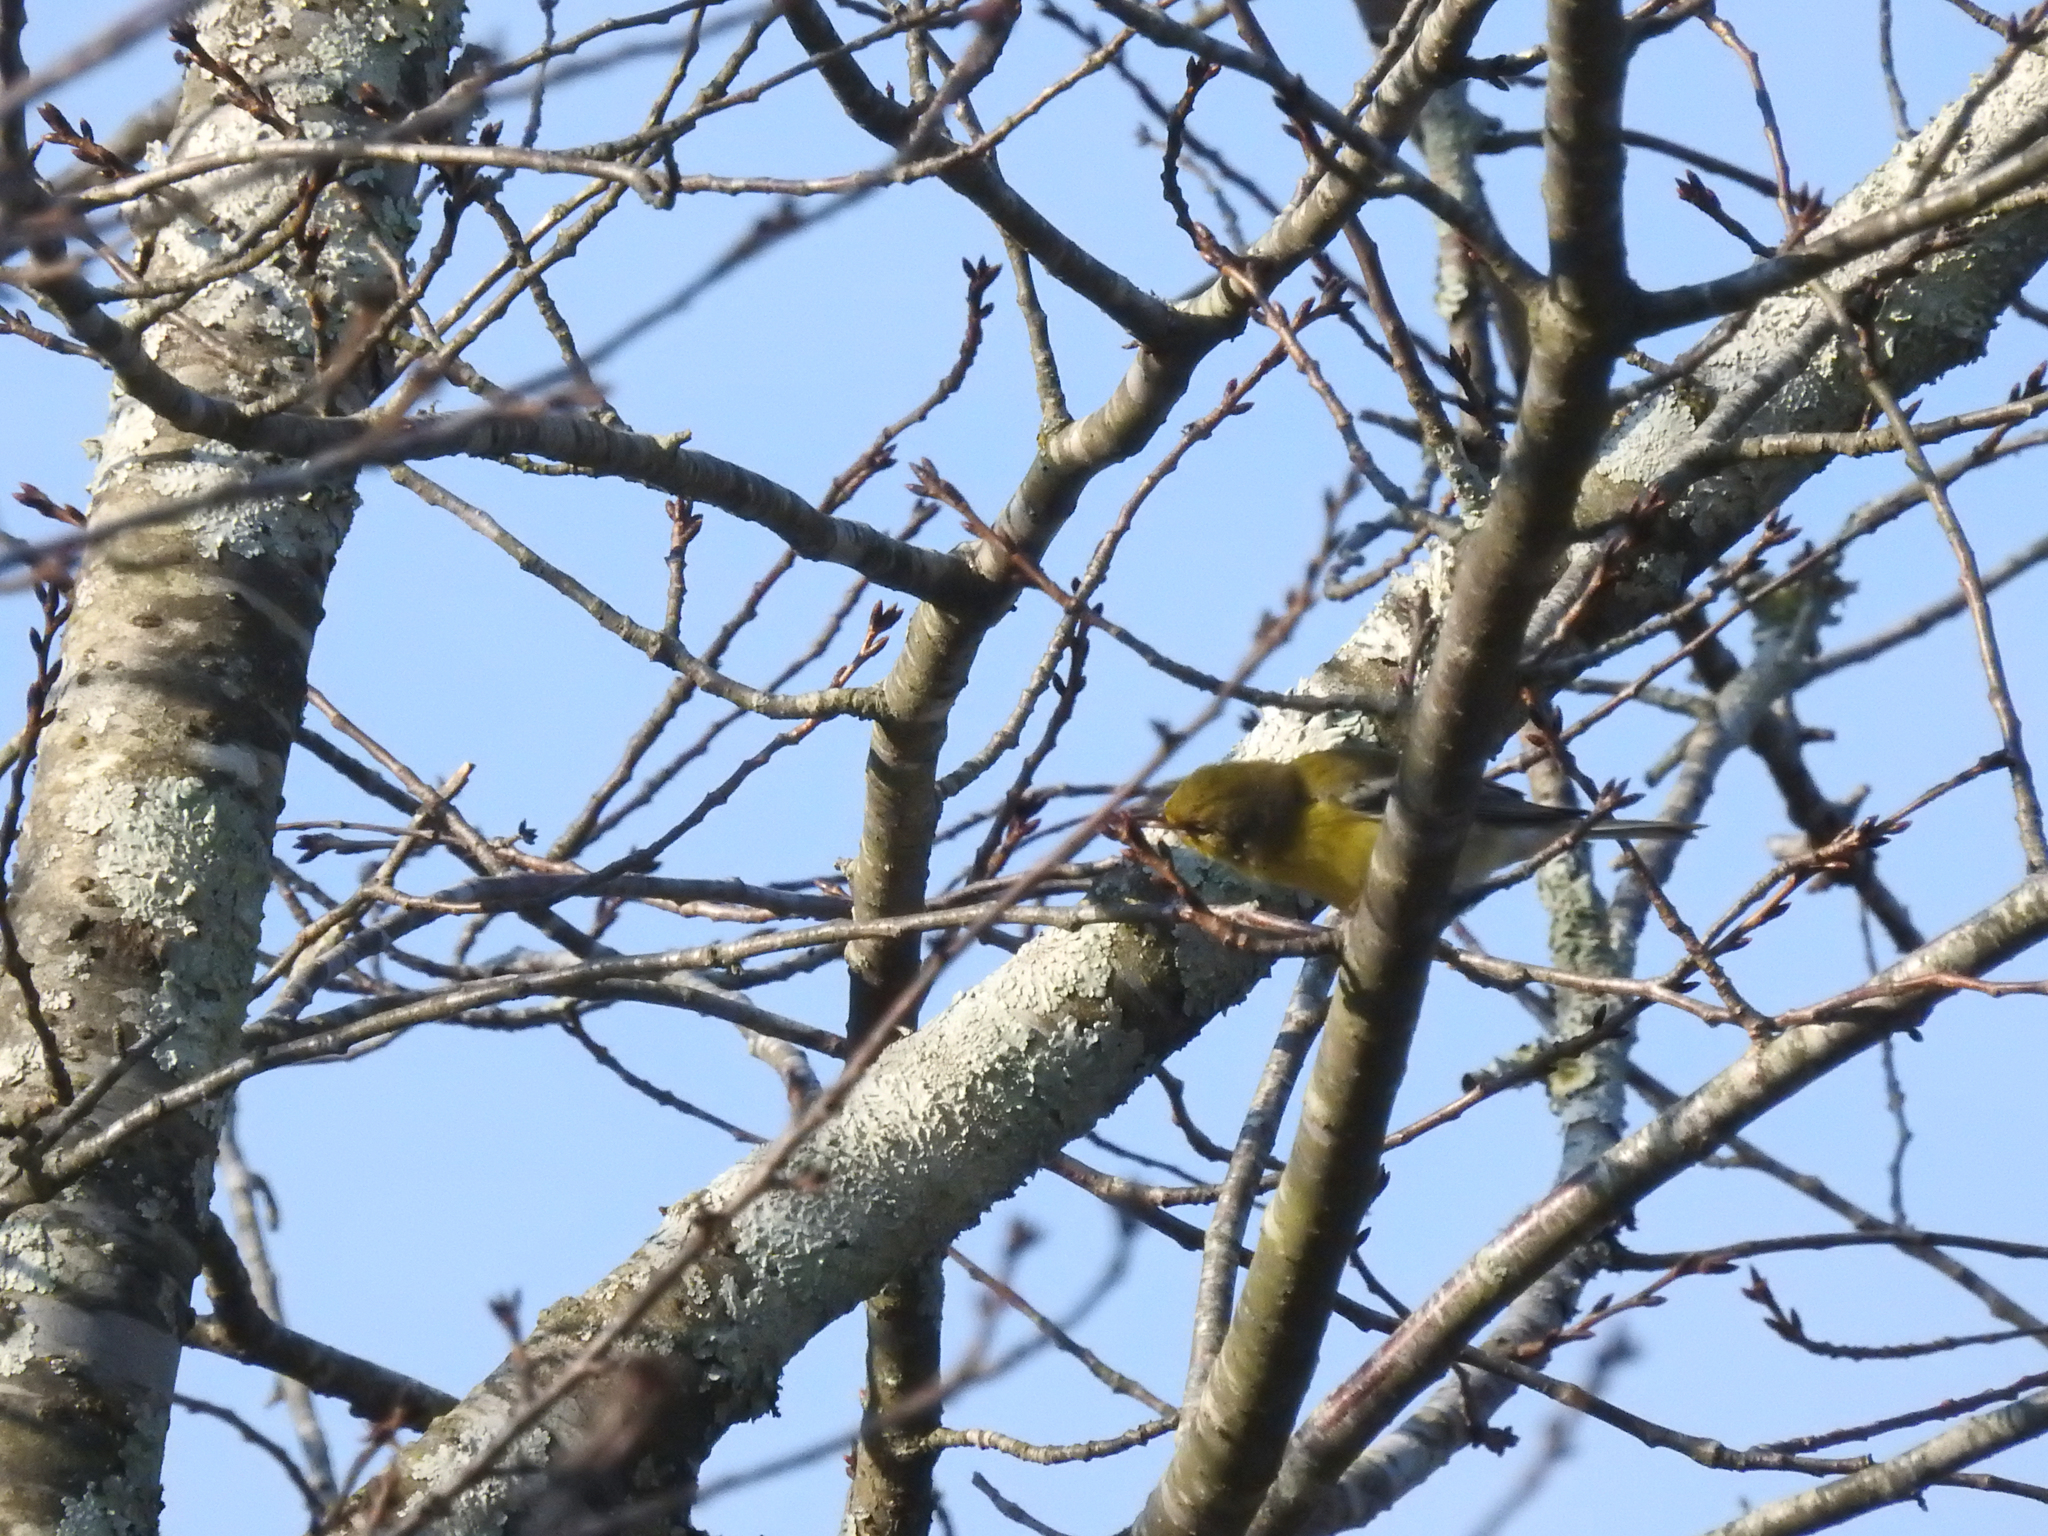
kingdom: Animalia
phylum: Chordata
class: Aves
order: Passeriformes
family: Parulidae
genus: Setophaga
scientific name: Setophaga pinus
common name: Pine warbler
